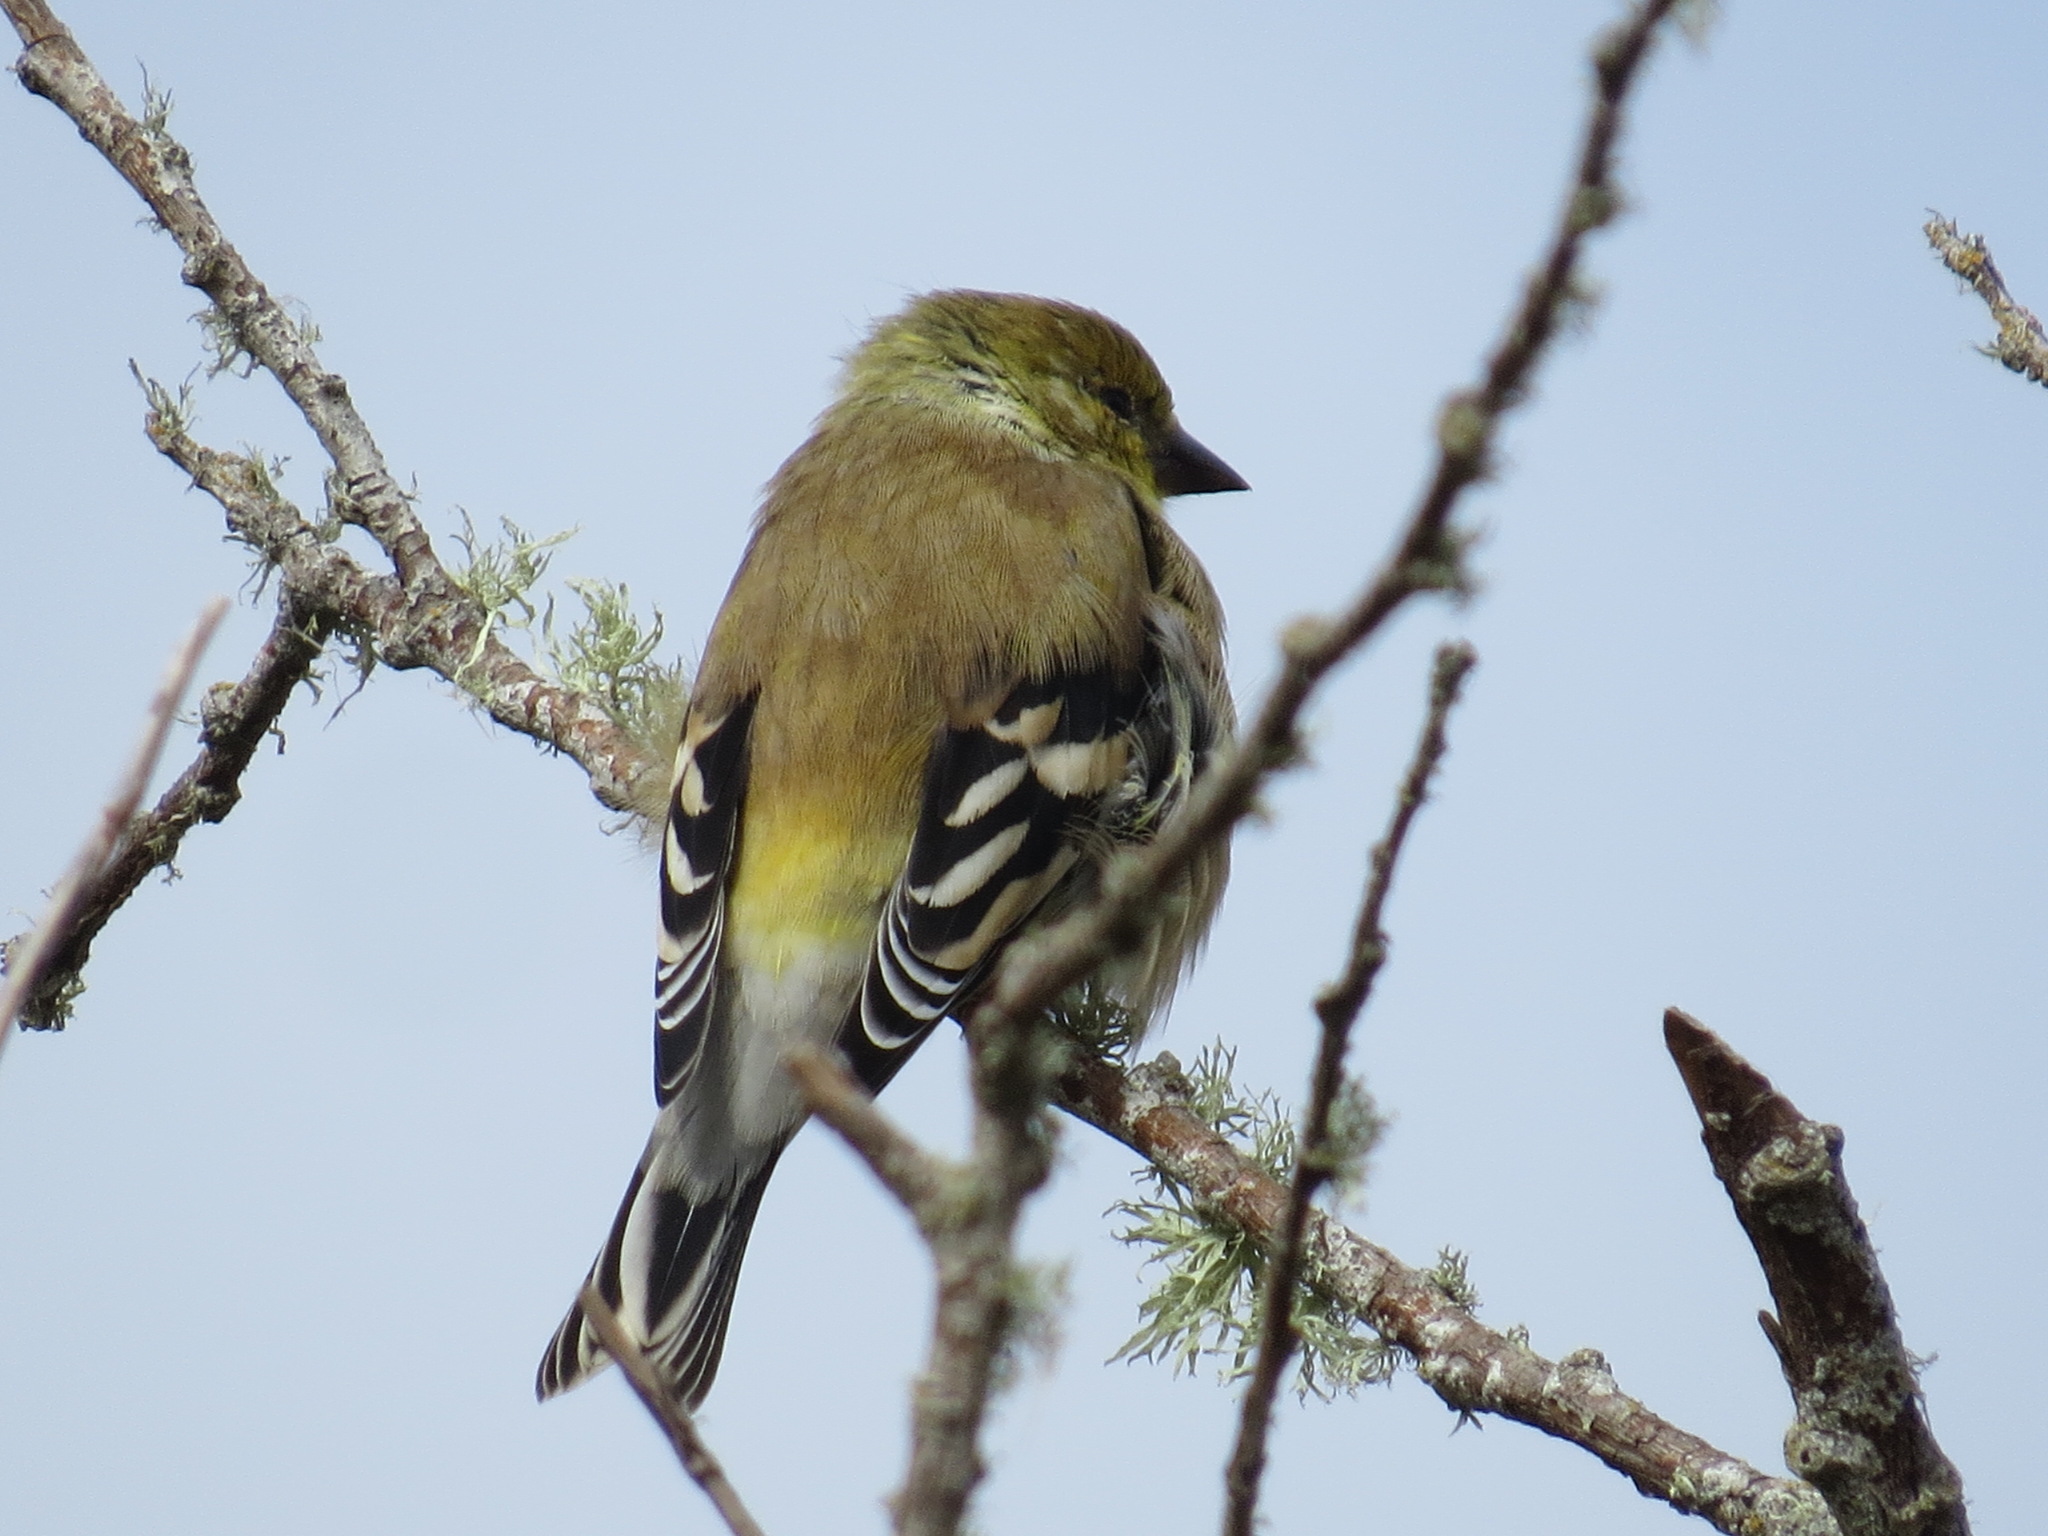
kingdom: Animalia
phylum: Chordata
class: Aves
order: Passeriformes
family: Fringillidae
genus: Spinus
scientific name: Spinus tristis
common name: American goldfinch
